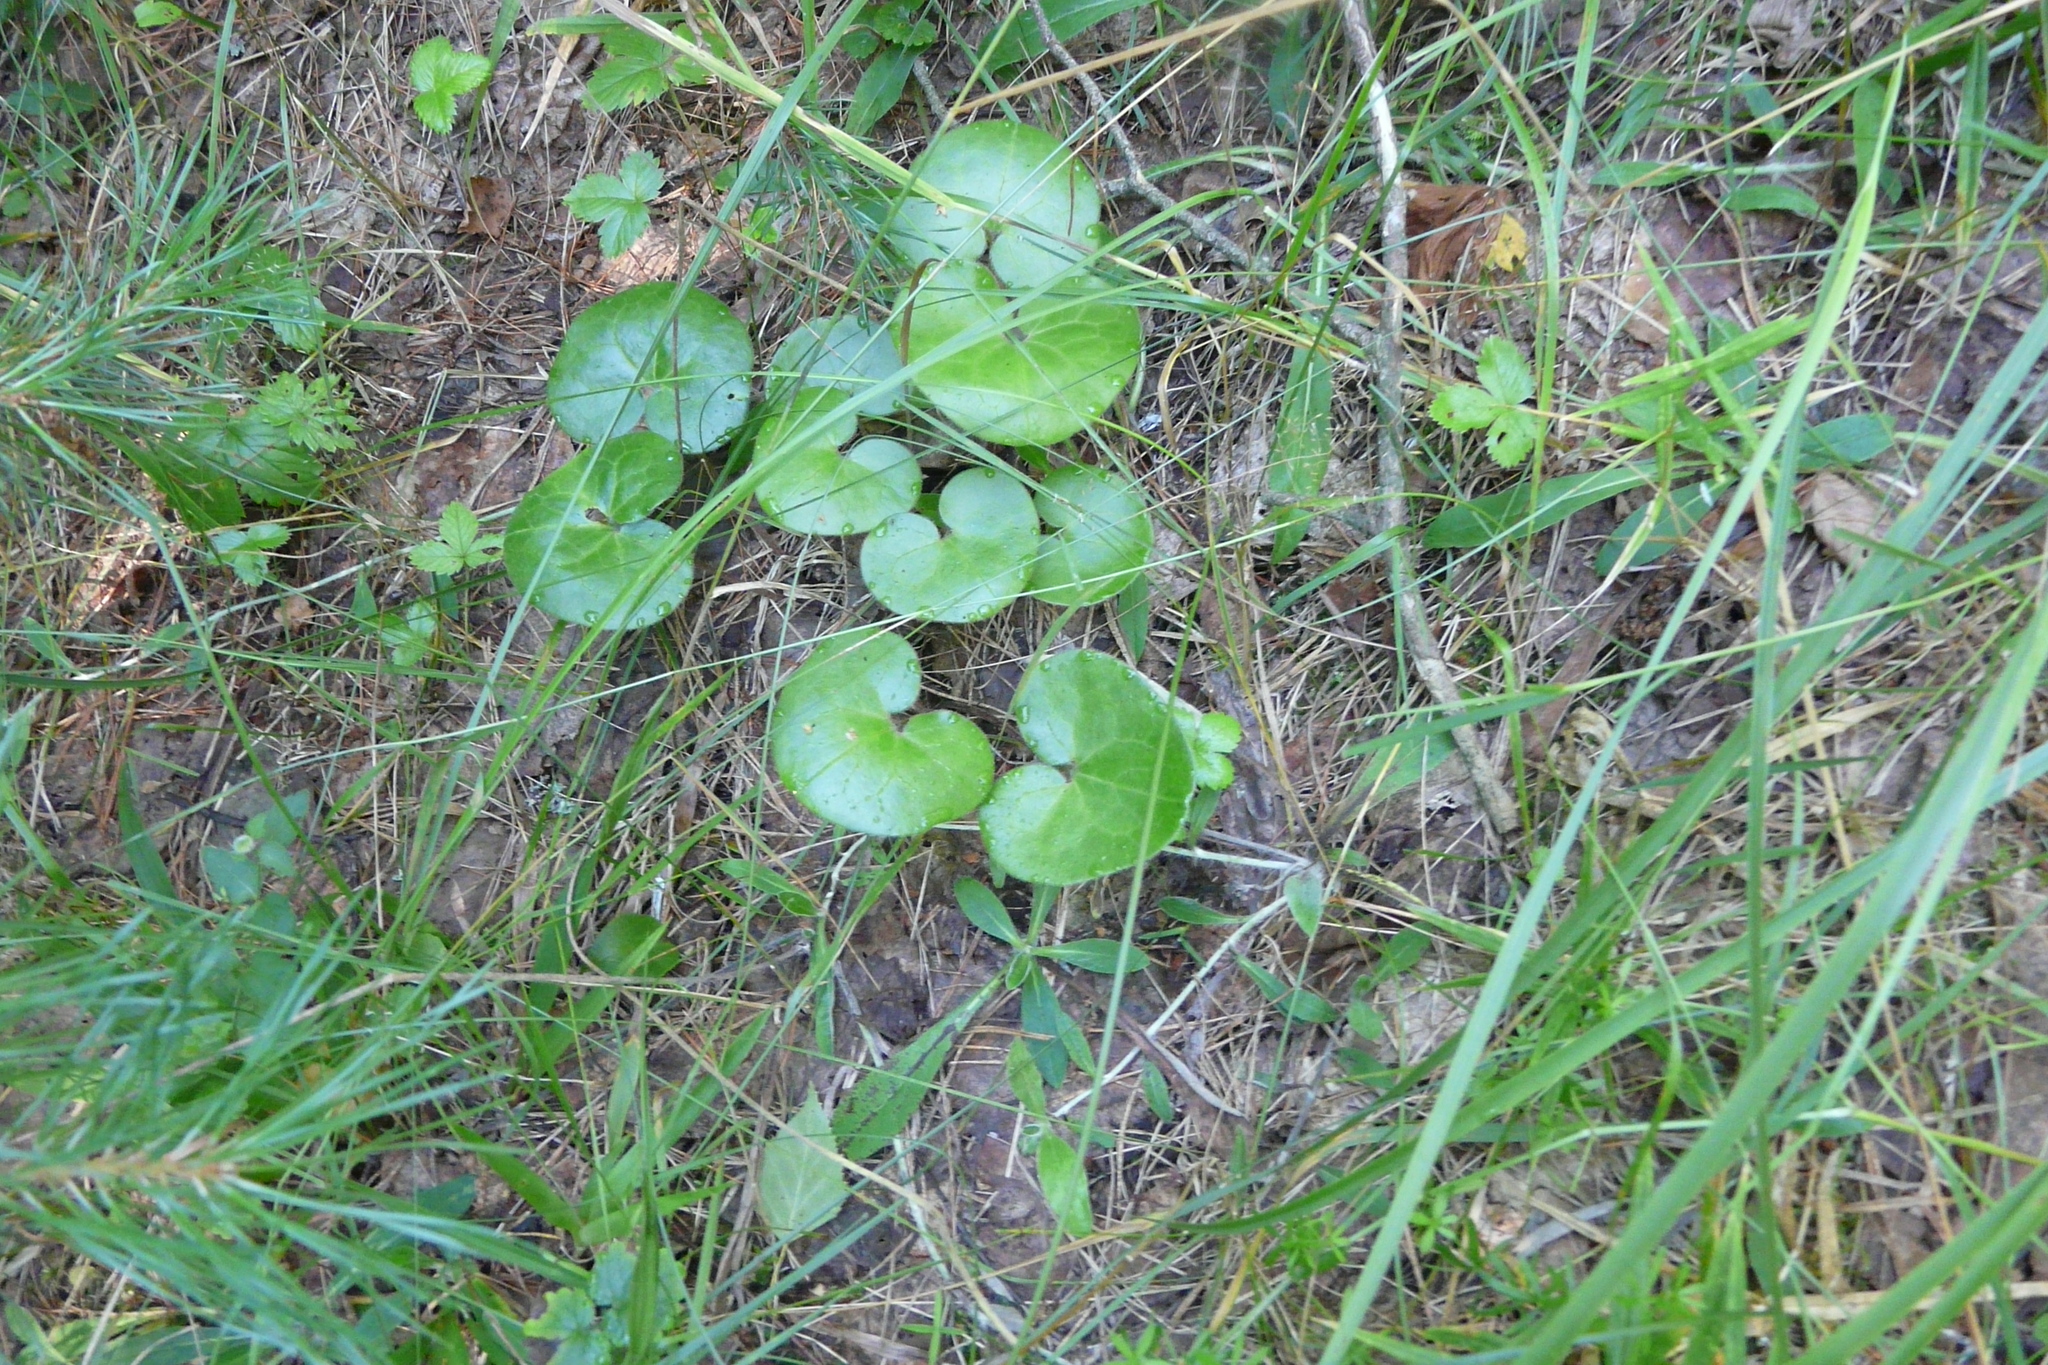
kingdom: Plantae
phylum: Tracheophyta
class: Magnoliopsida
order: Piperales
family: Aristolochiaceae
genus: Asarum
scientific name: Asarum europaeum
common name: Asarabacca
